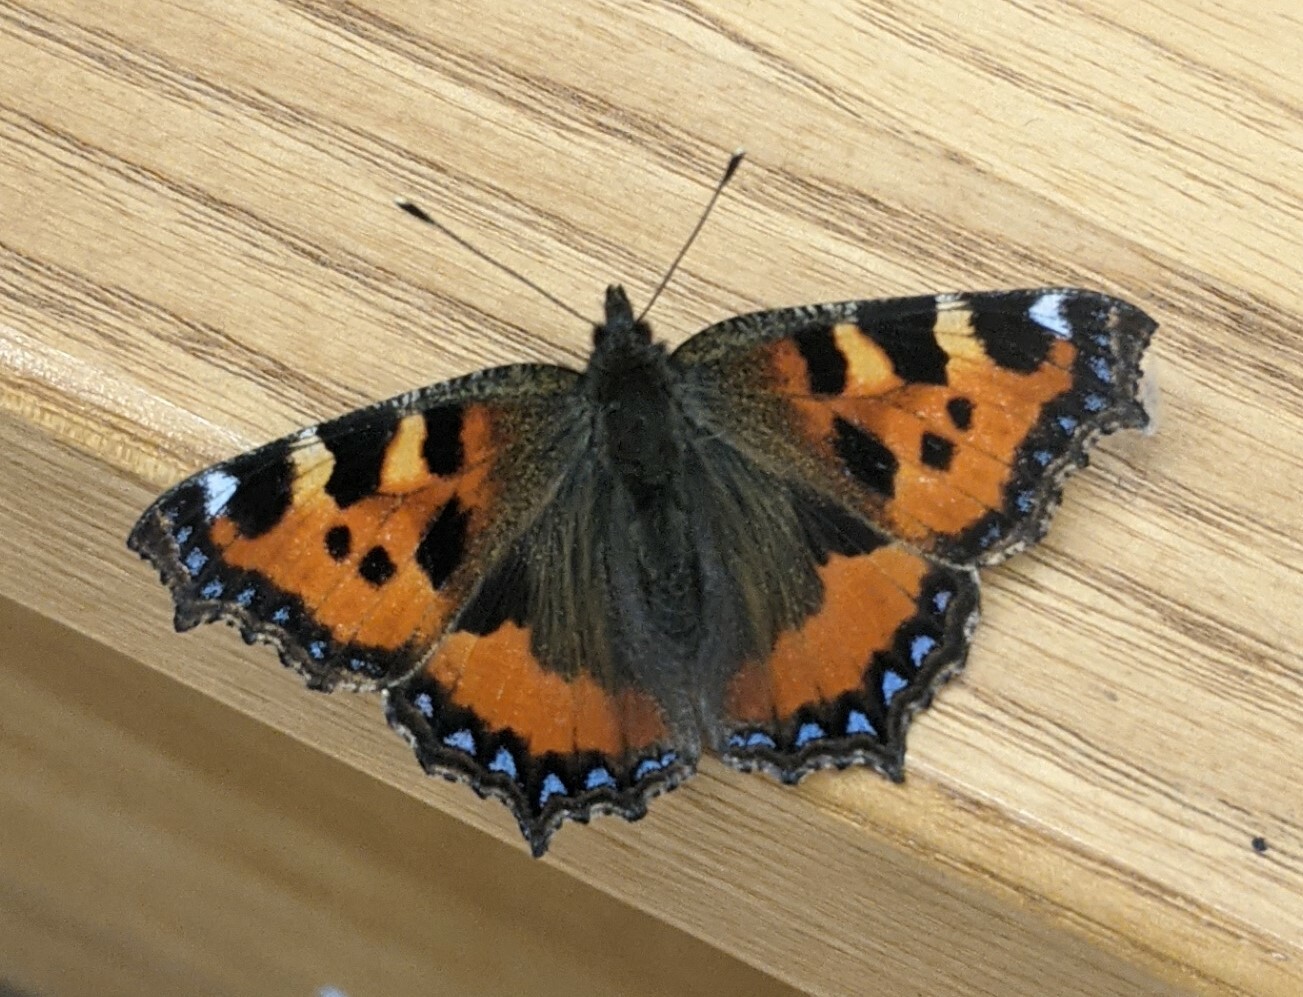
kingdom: Animalia
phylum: Arthropoda
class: Insecta
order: Lepidoptera
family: Nymphalidae
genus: Aglais
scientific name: Aglais urticae
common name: Small tortoiseshell
